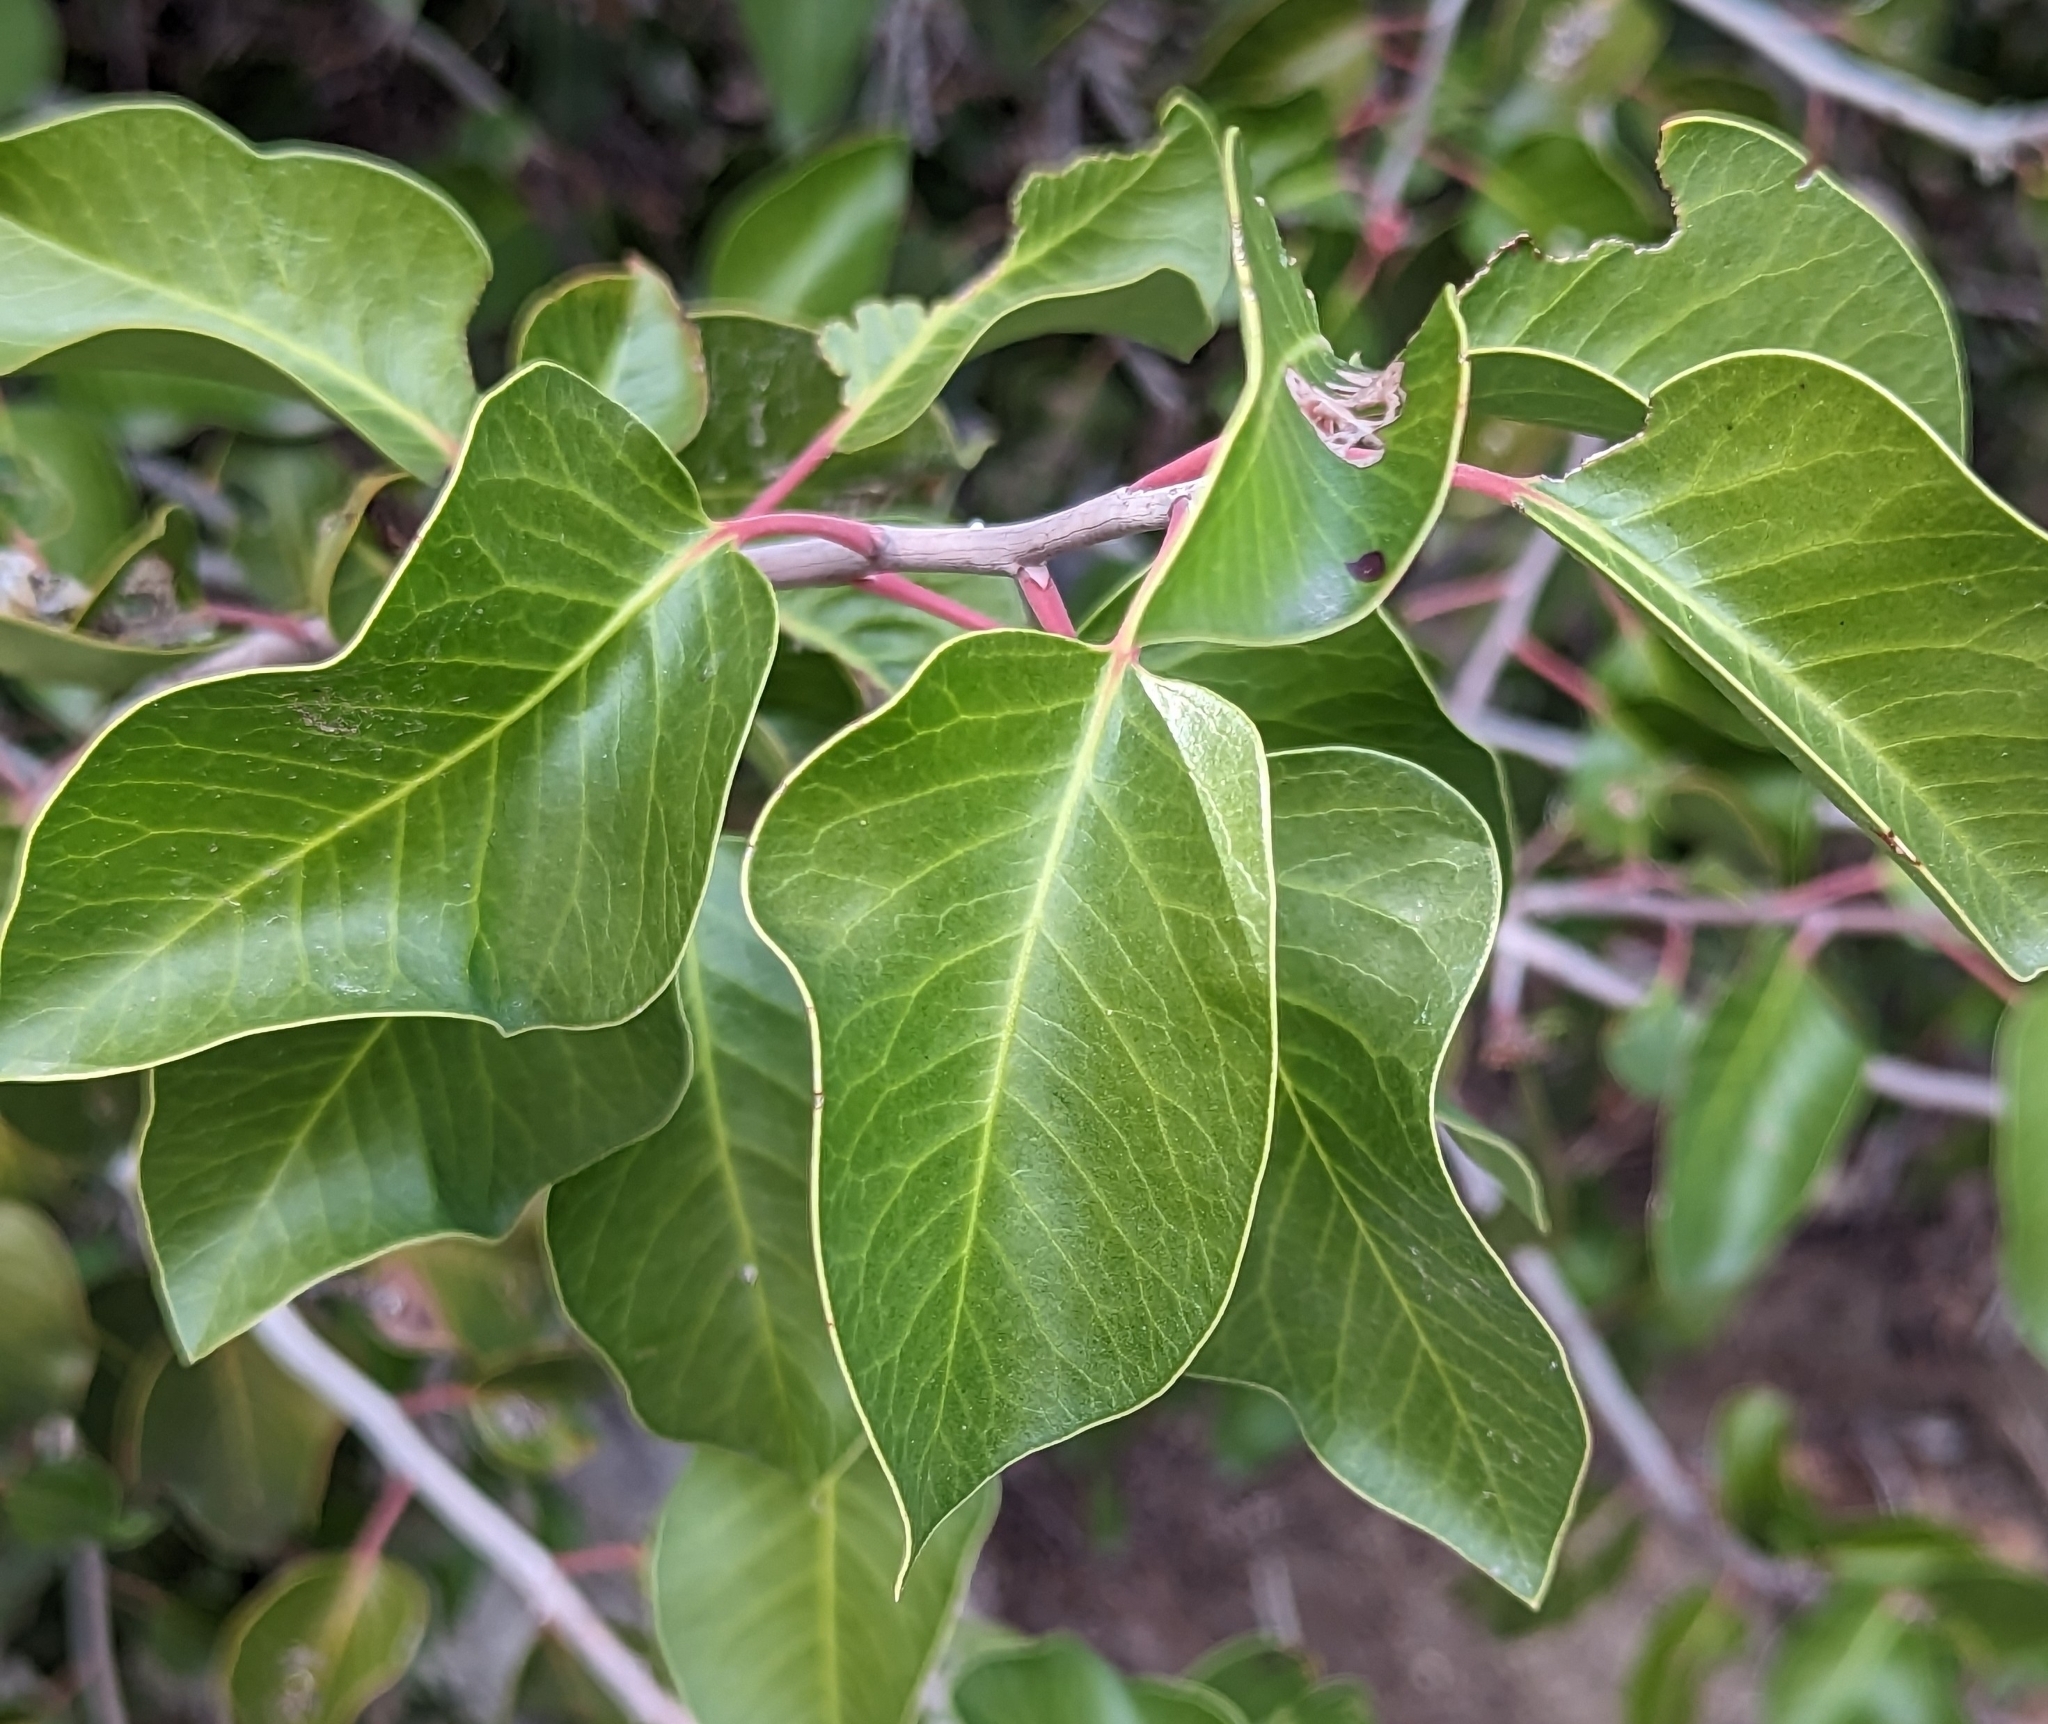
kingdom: Plantae
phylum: Tracheophyta
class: Magnoliopsida
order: Sapindales
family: Anacardiaceae
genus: Rhus
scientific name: Rhus ovata
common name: Sugar sumac
